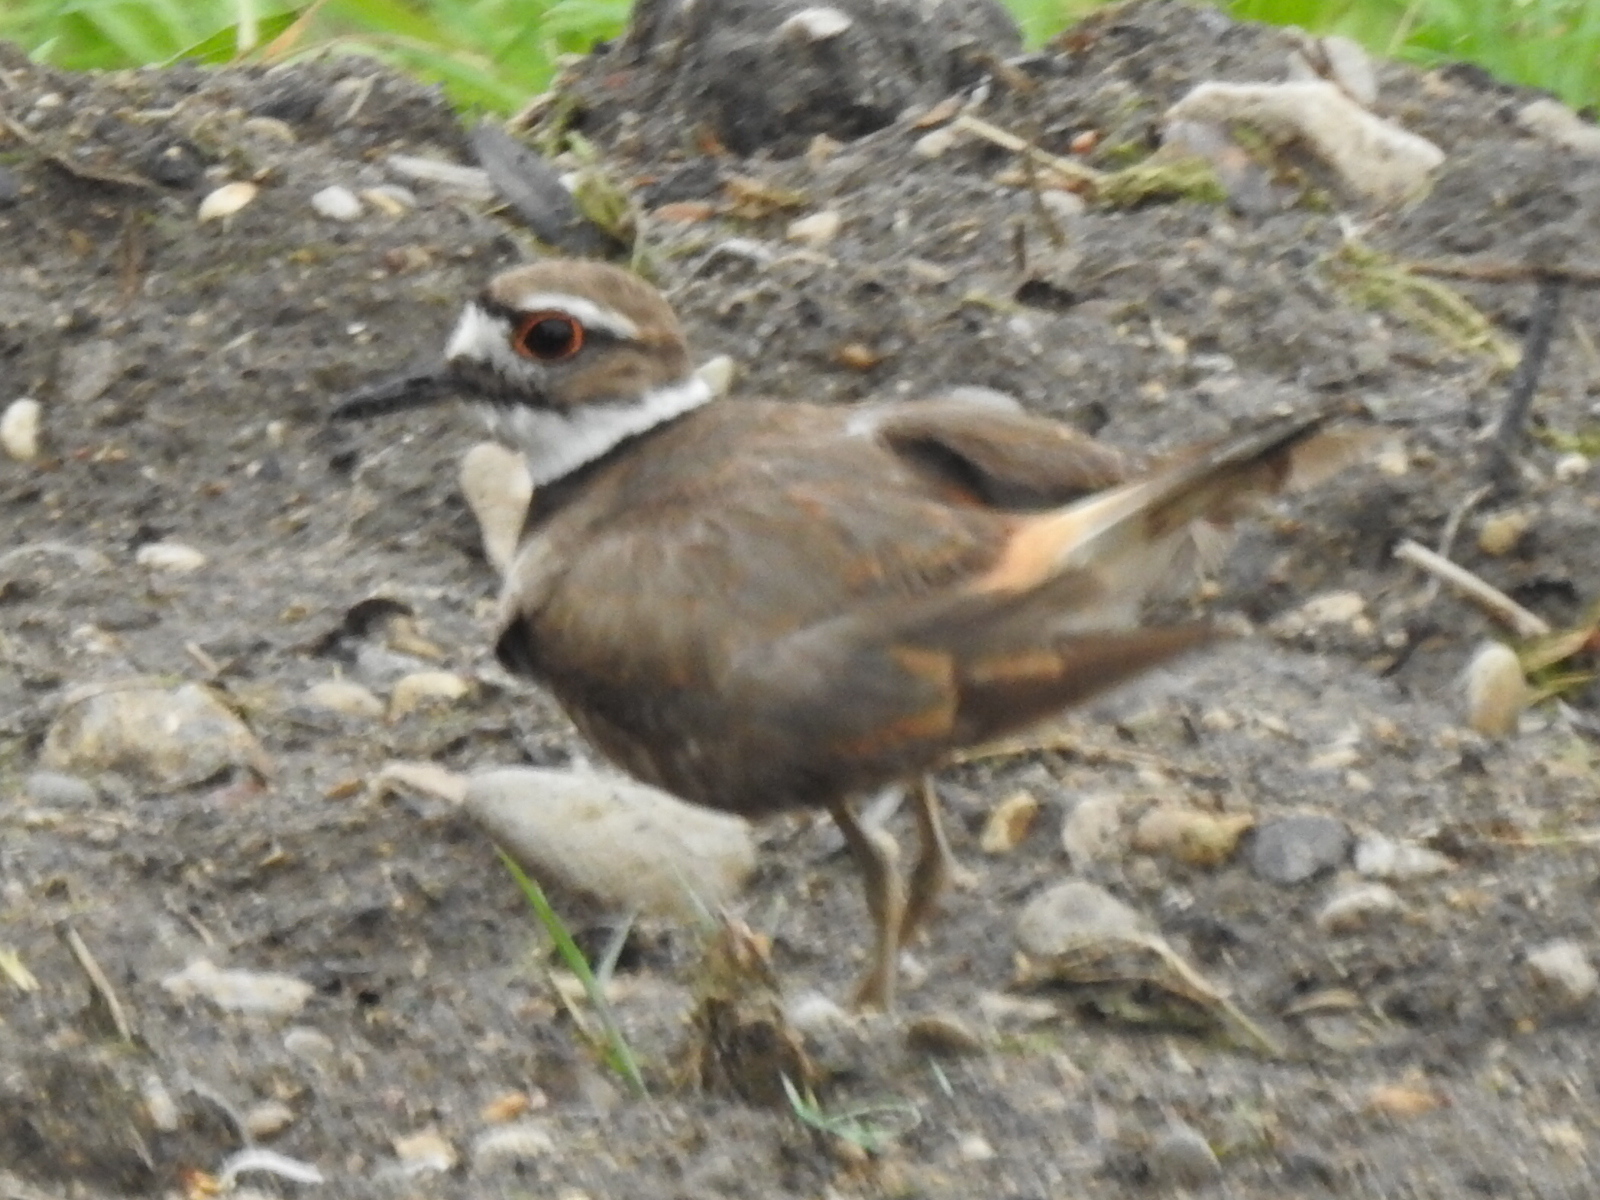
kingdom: Animalia
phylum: Chordata
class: Aves
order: Charadriiformes
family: Charadriidae
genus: Charadrius
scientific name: Charadrius vociferus
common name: Killdeer
